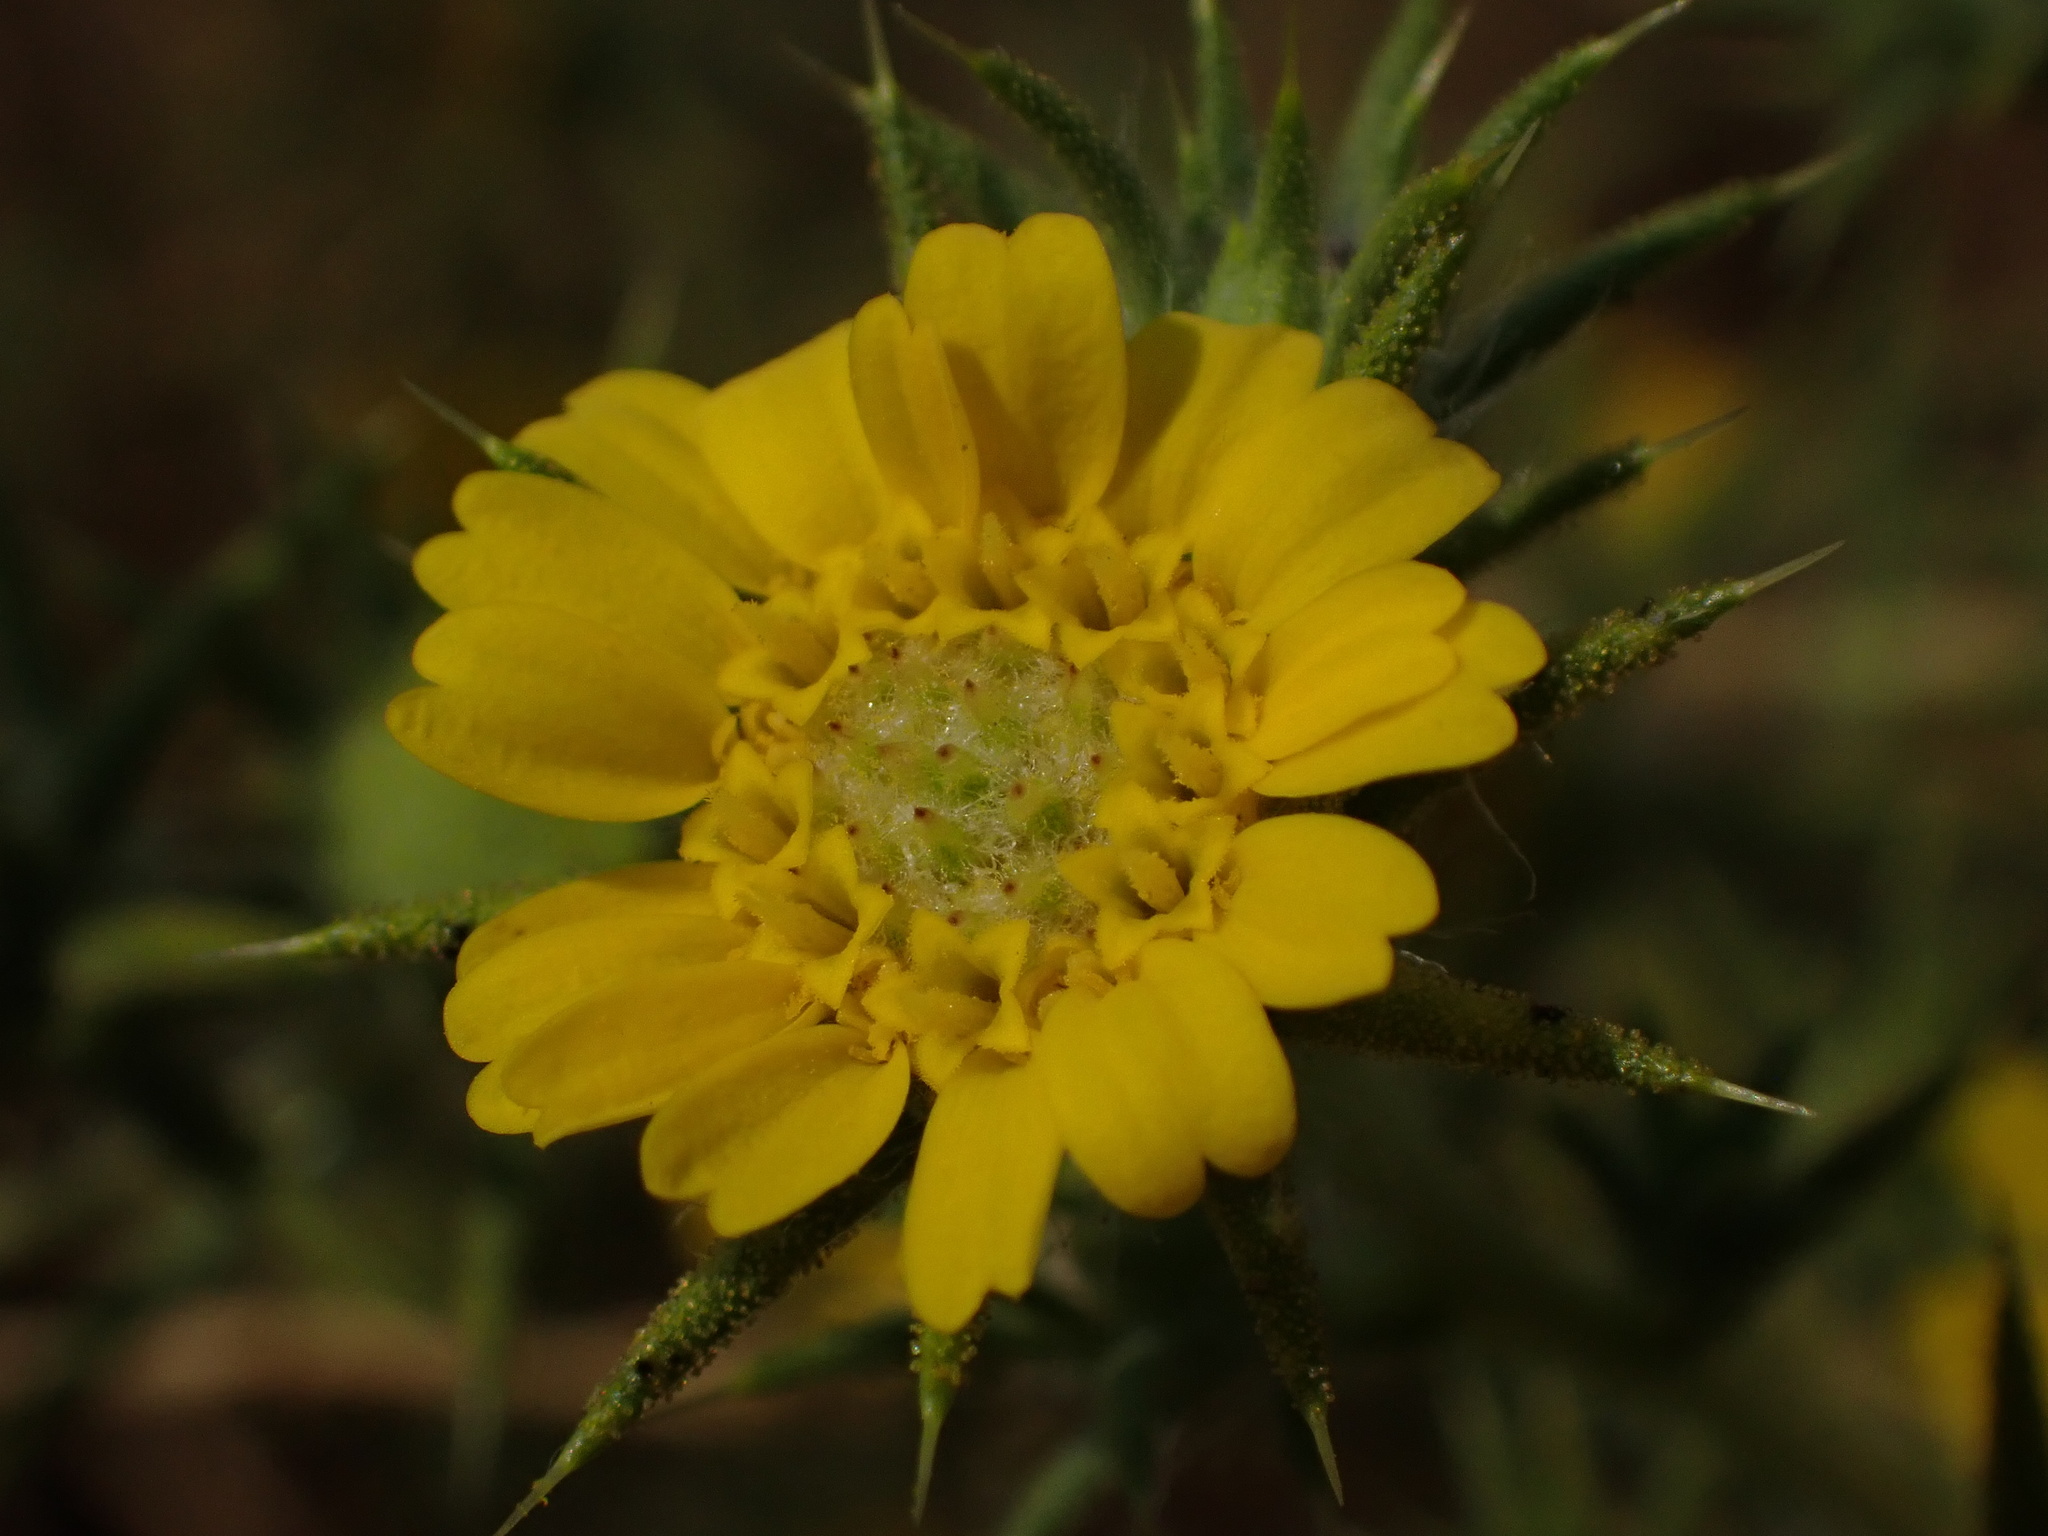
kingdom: Plantae
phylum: Tracheophyta
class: Magnoliopsida
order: Asterales
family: Asteraceae
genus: Centromadia
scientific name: Centromadia parryi
